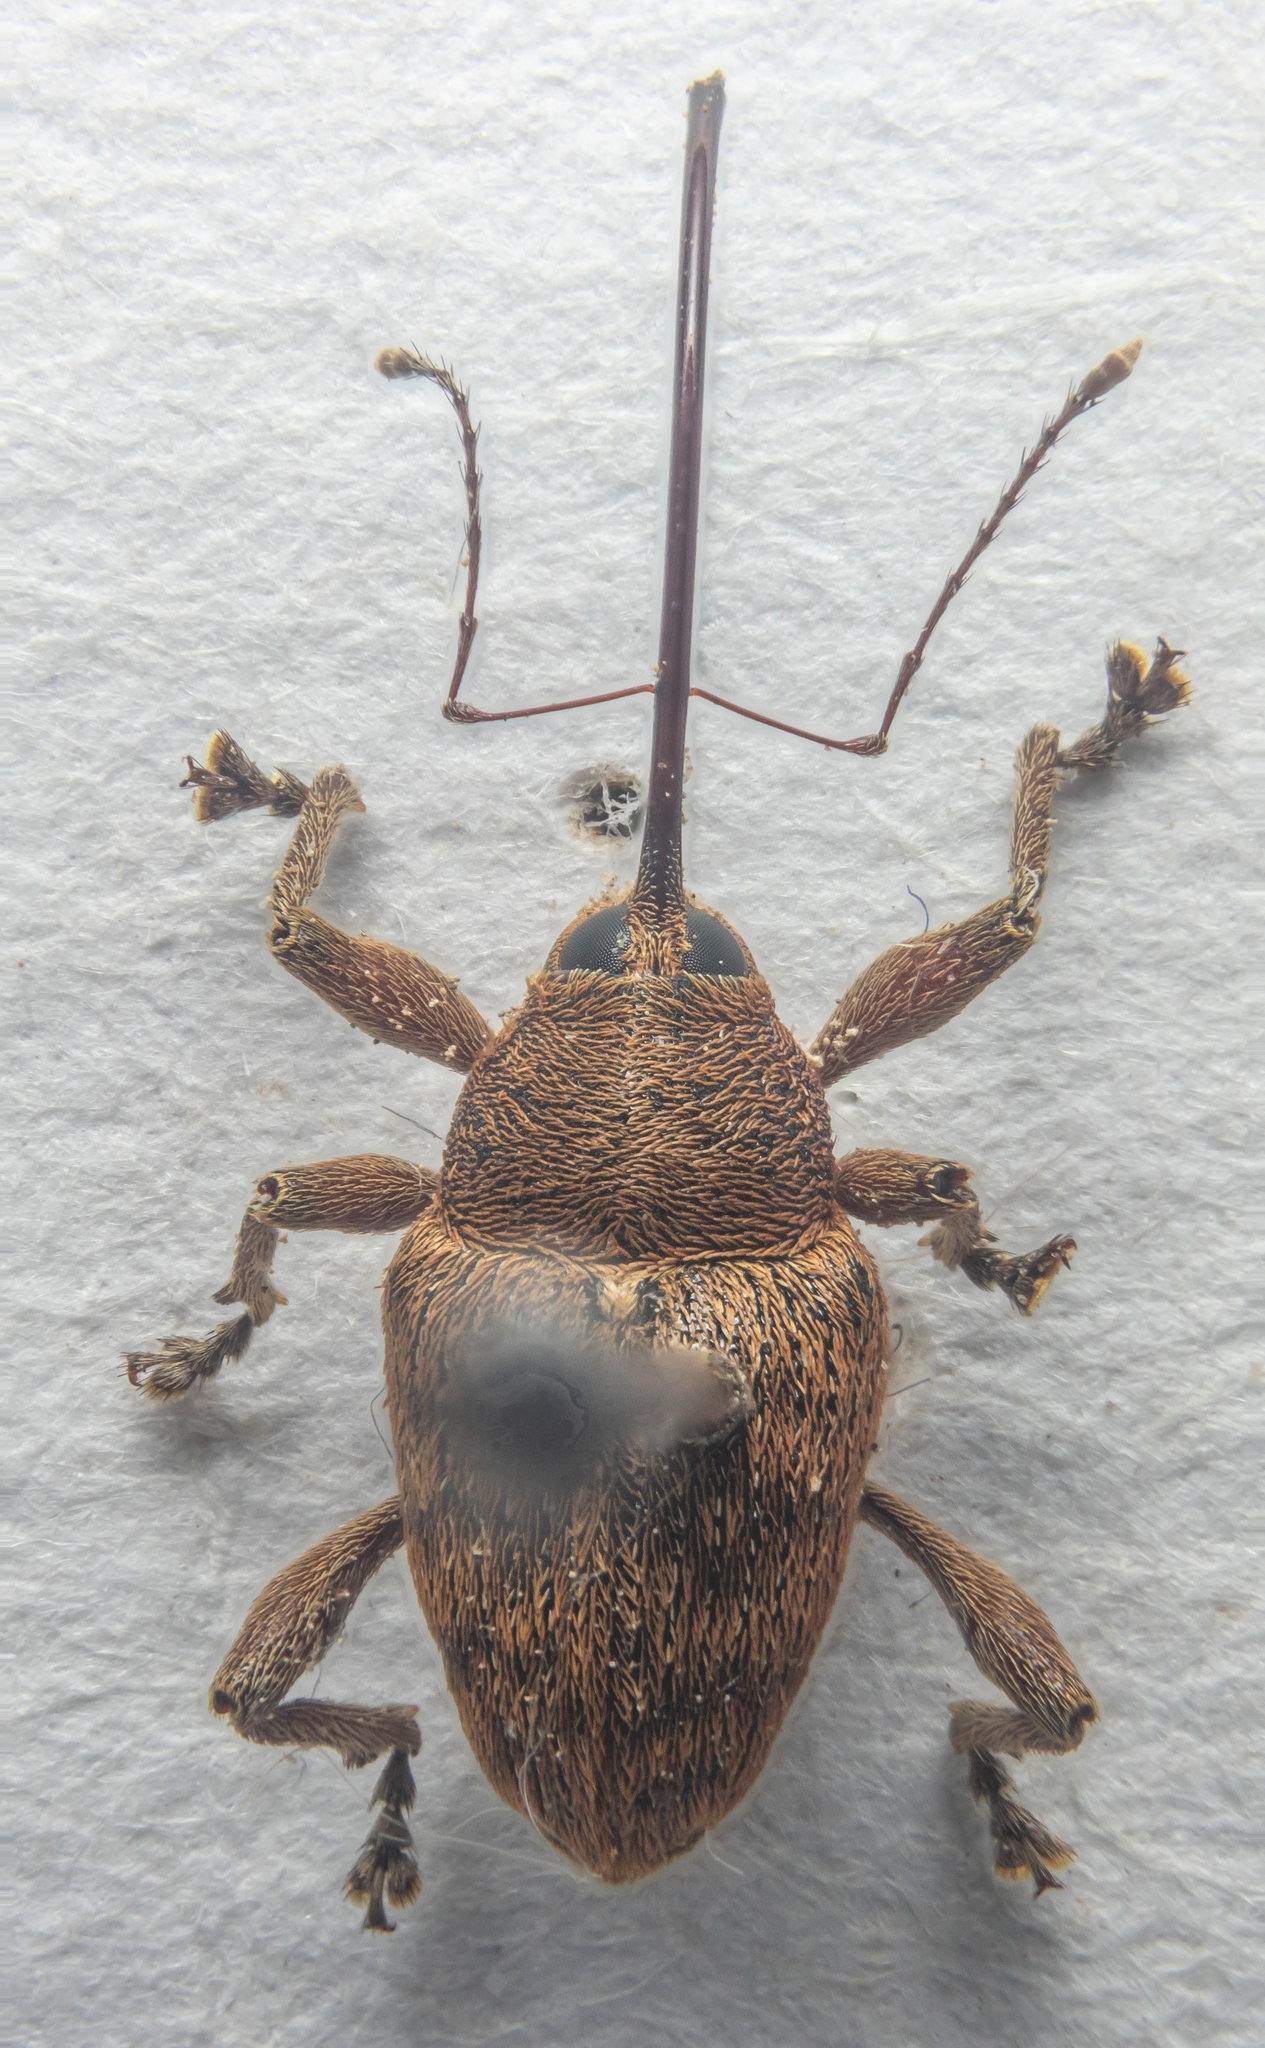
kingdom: Animalia
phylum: Arthropoda
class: Insecta
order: Coleoptera
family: Curculionidae
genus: Curculio
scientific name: Curculio glandium
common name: Acorn weevil
